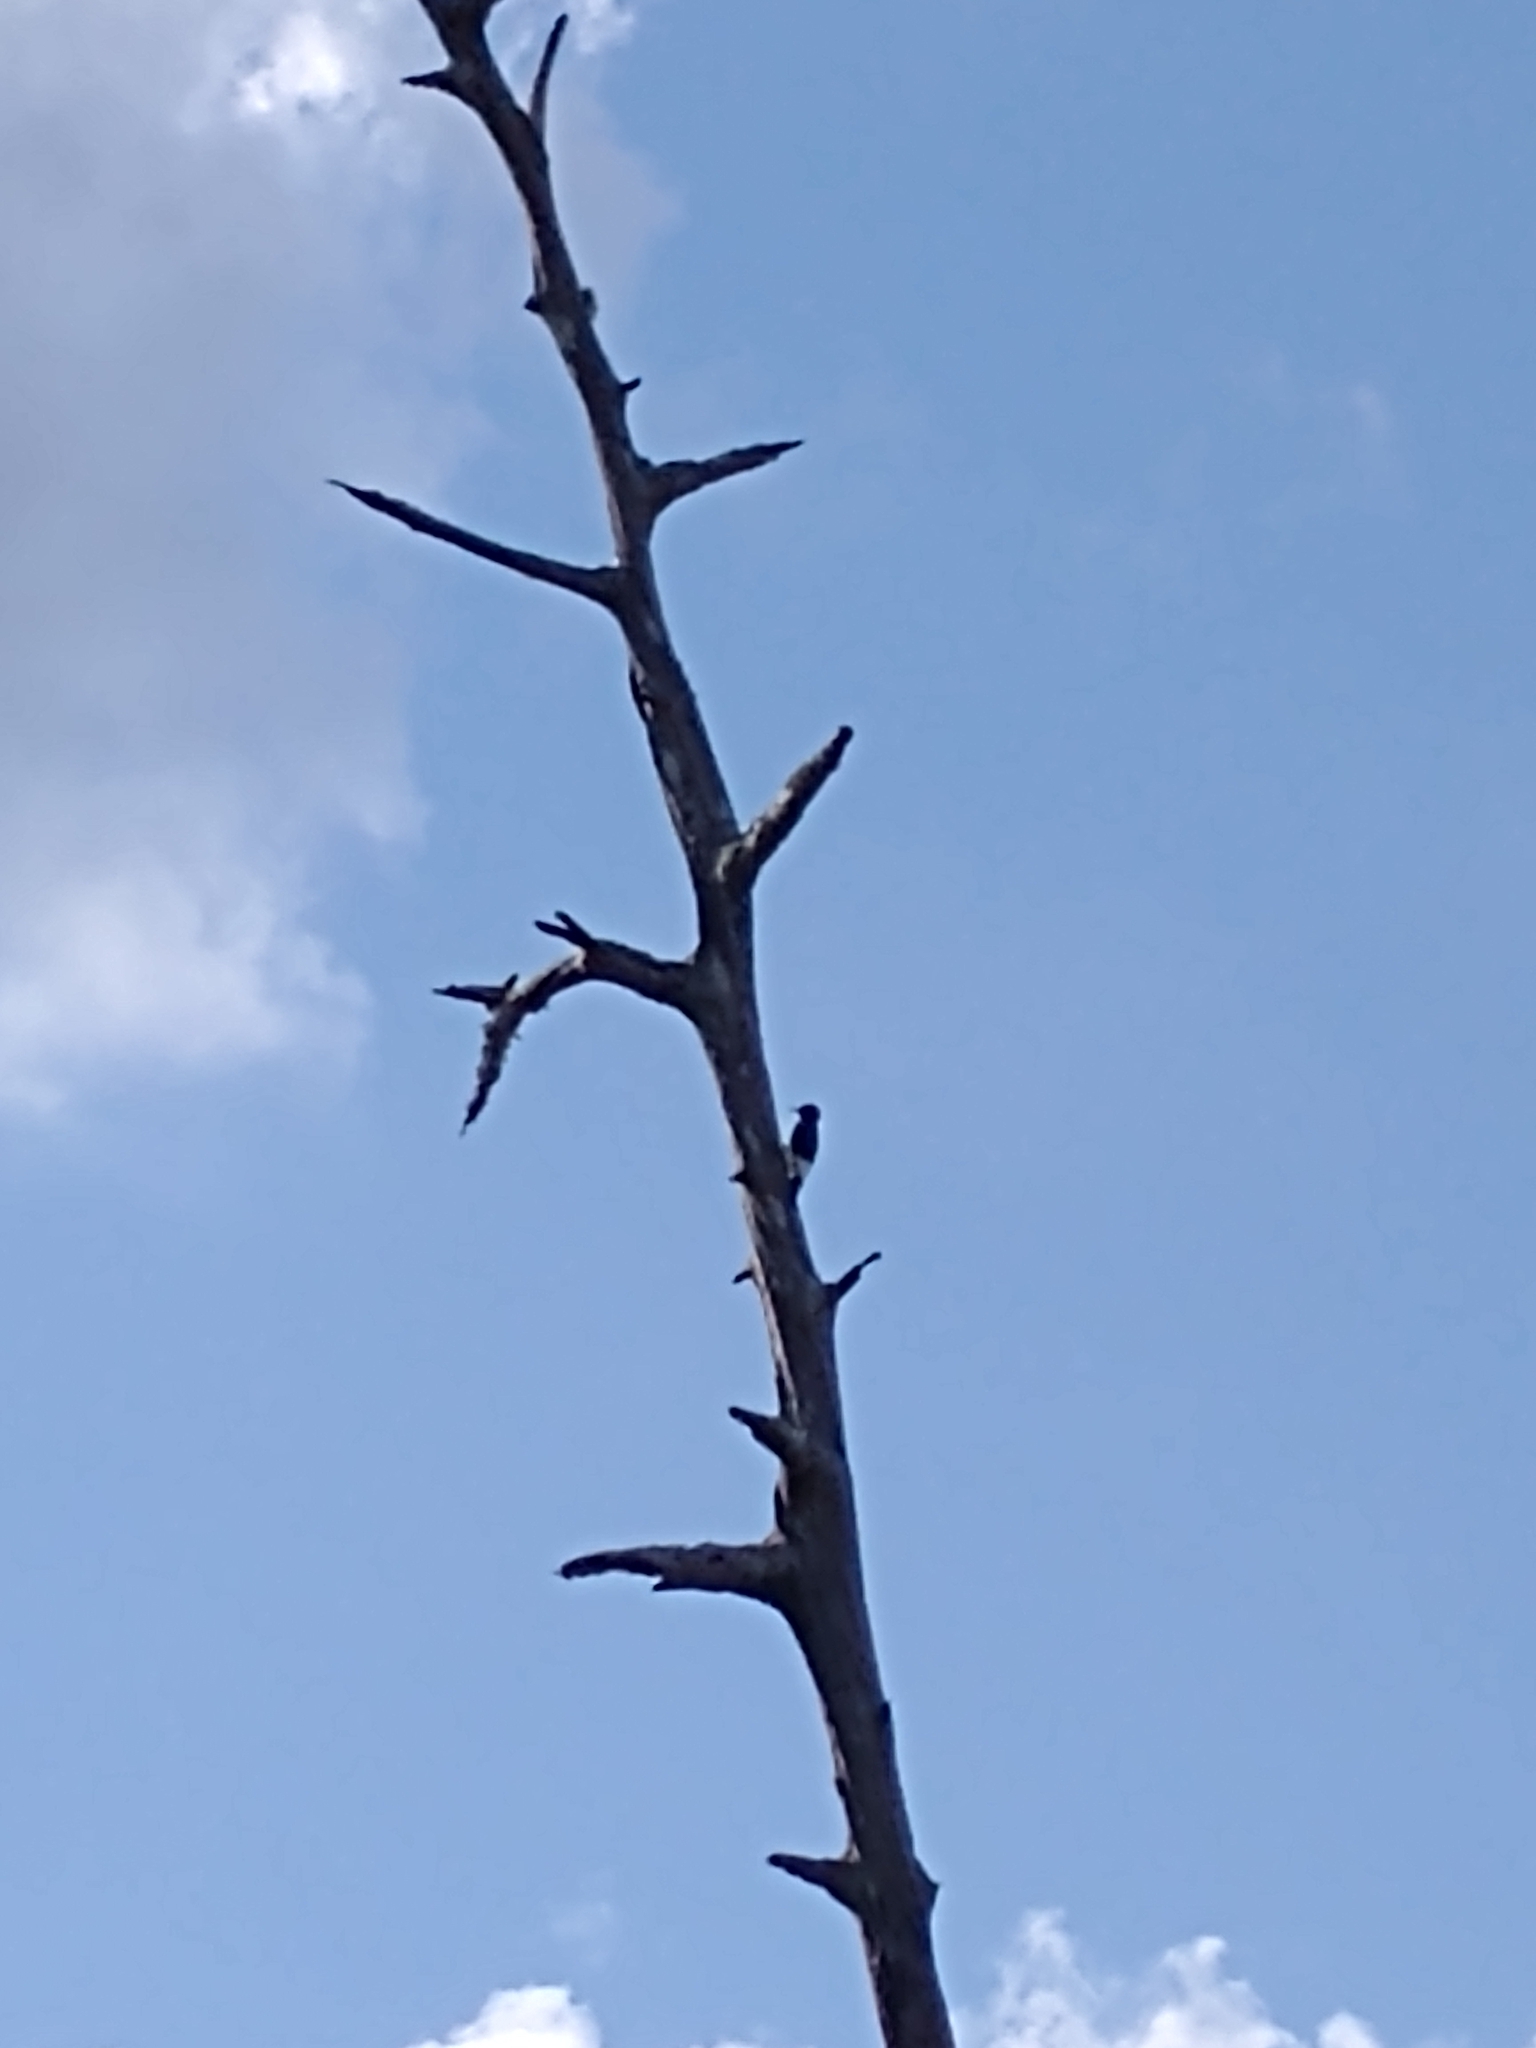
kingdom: Animalia
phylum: Chordata
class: Aves
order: Piciformes
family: Picidae
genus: Melanerpes
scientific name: Melanerpes erythrocephalus
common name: Red-headed woodpecker
